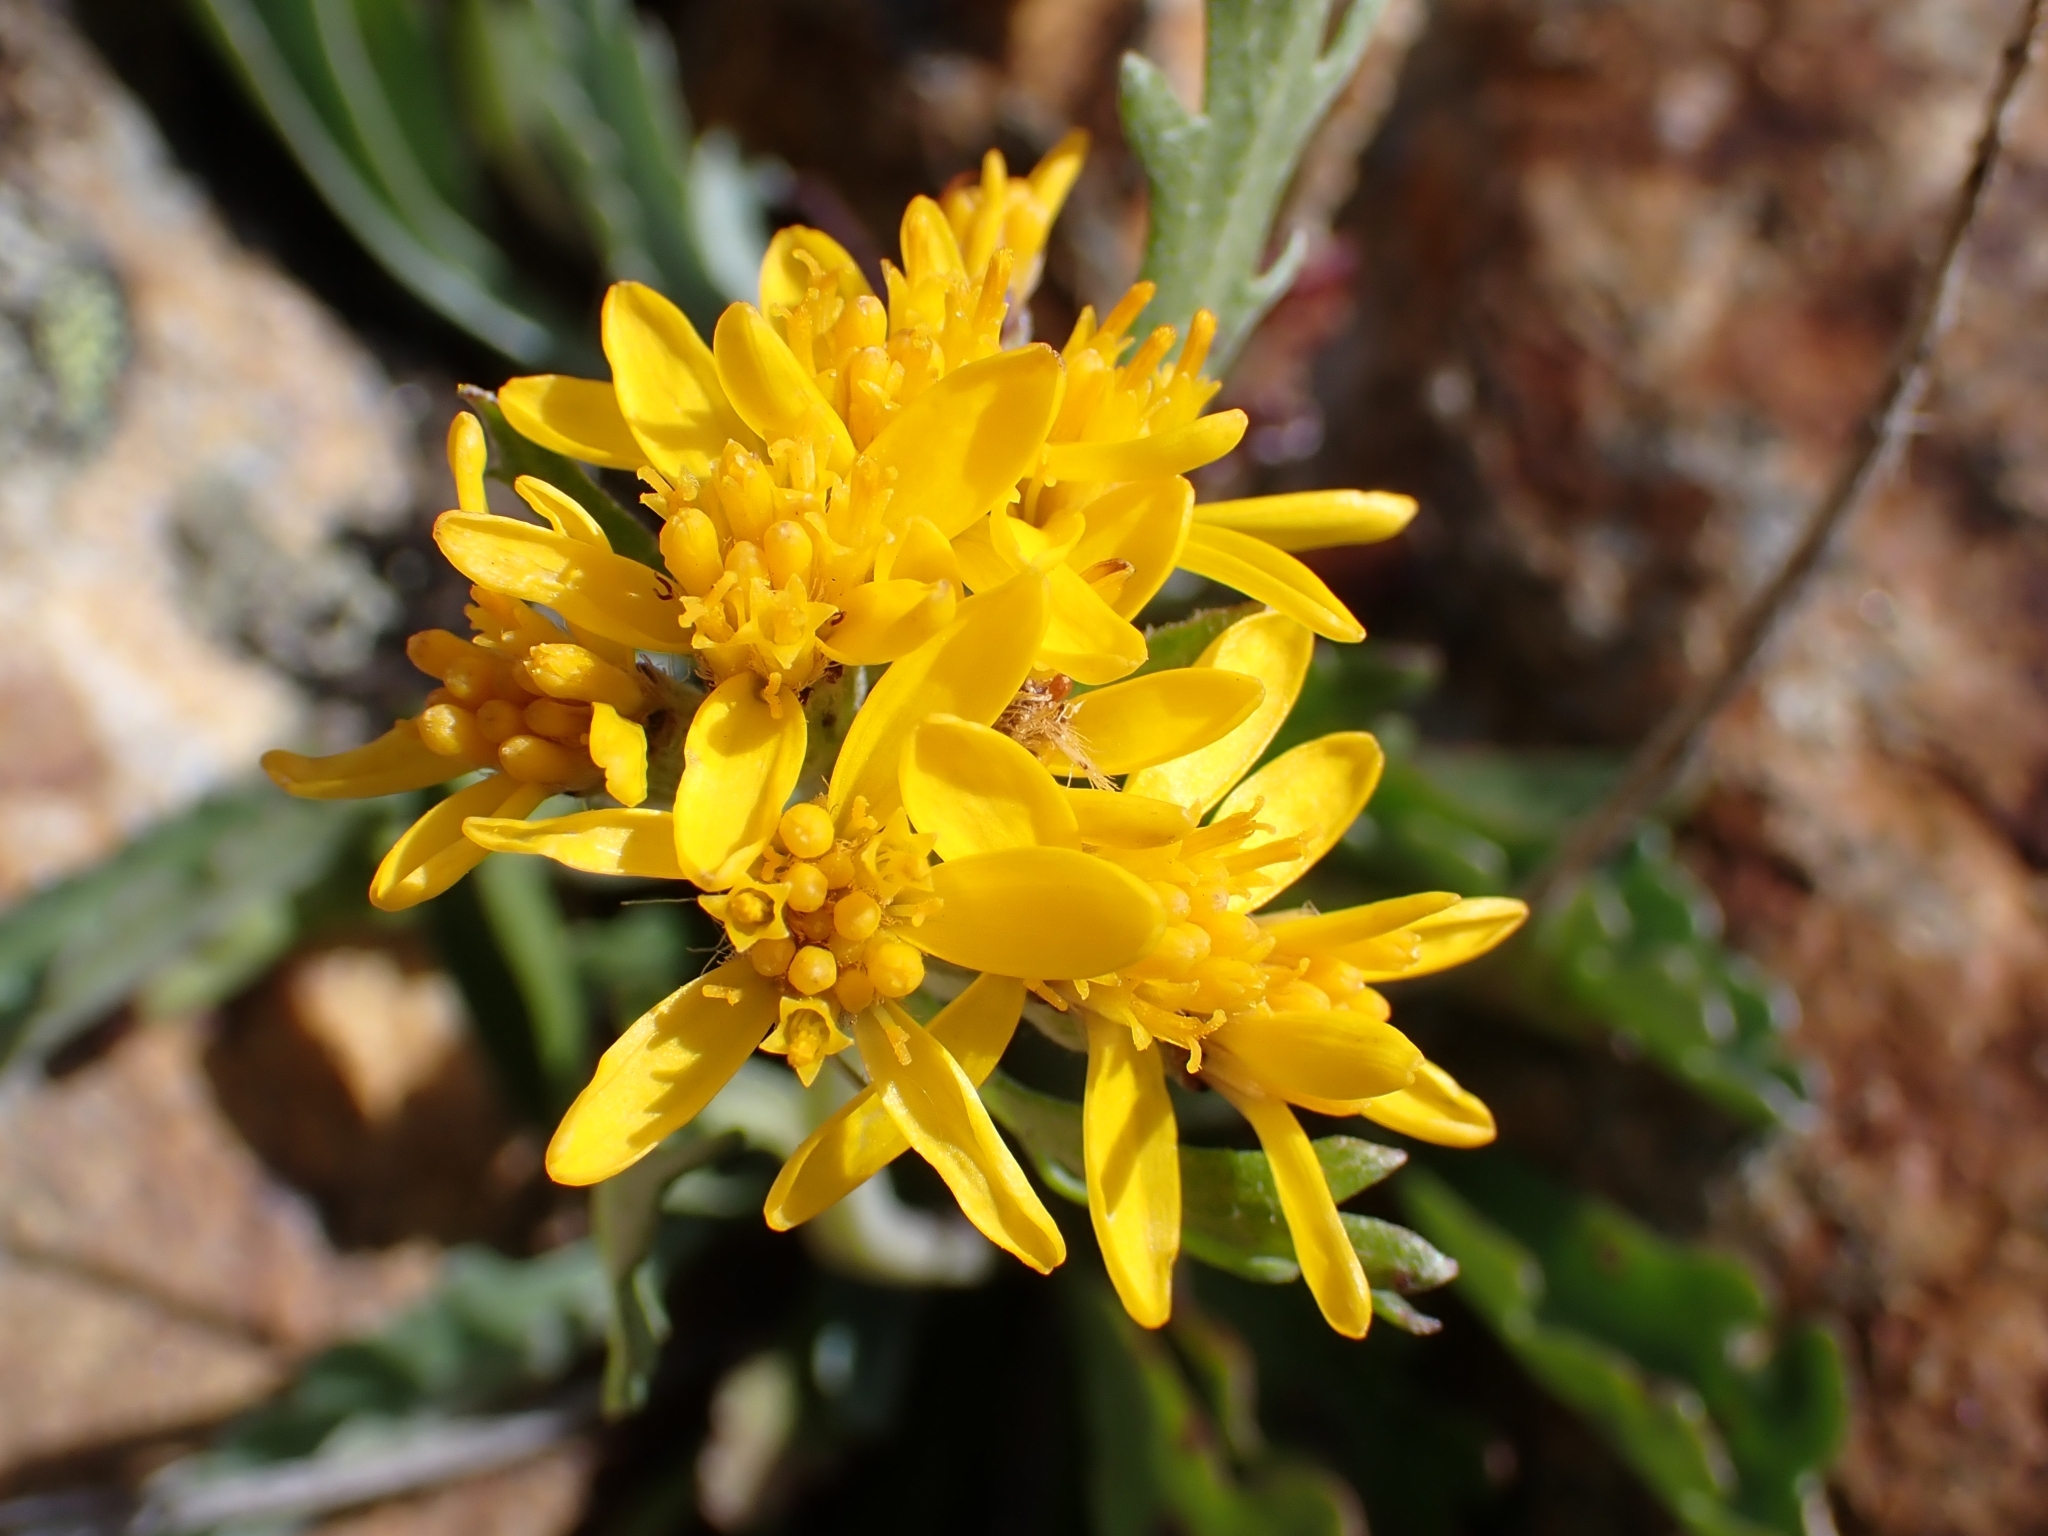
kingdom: Plantae
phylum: Tracheophyta
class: Magnoliopsida
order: Asterales
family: Asteraceae
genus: Jacobaea
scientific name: Jacobaea carniolica
